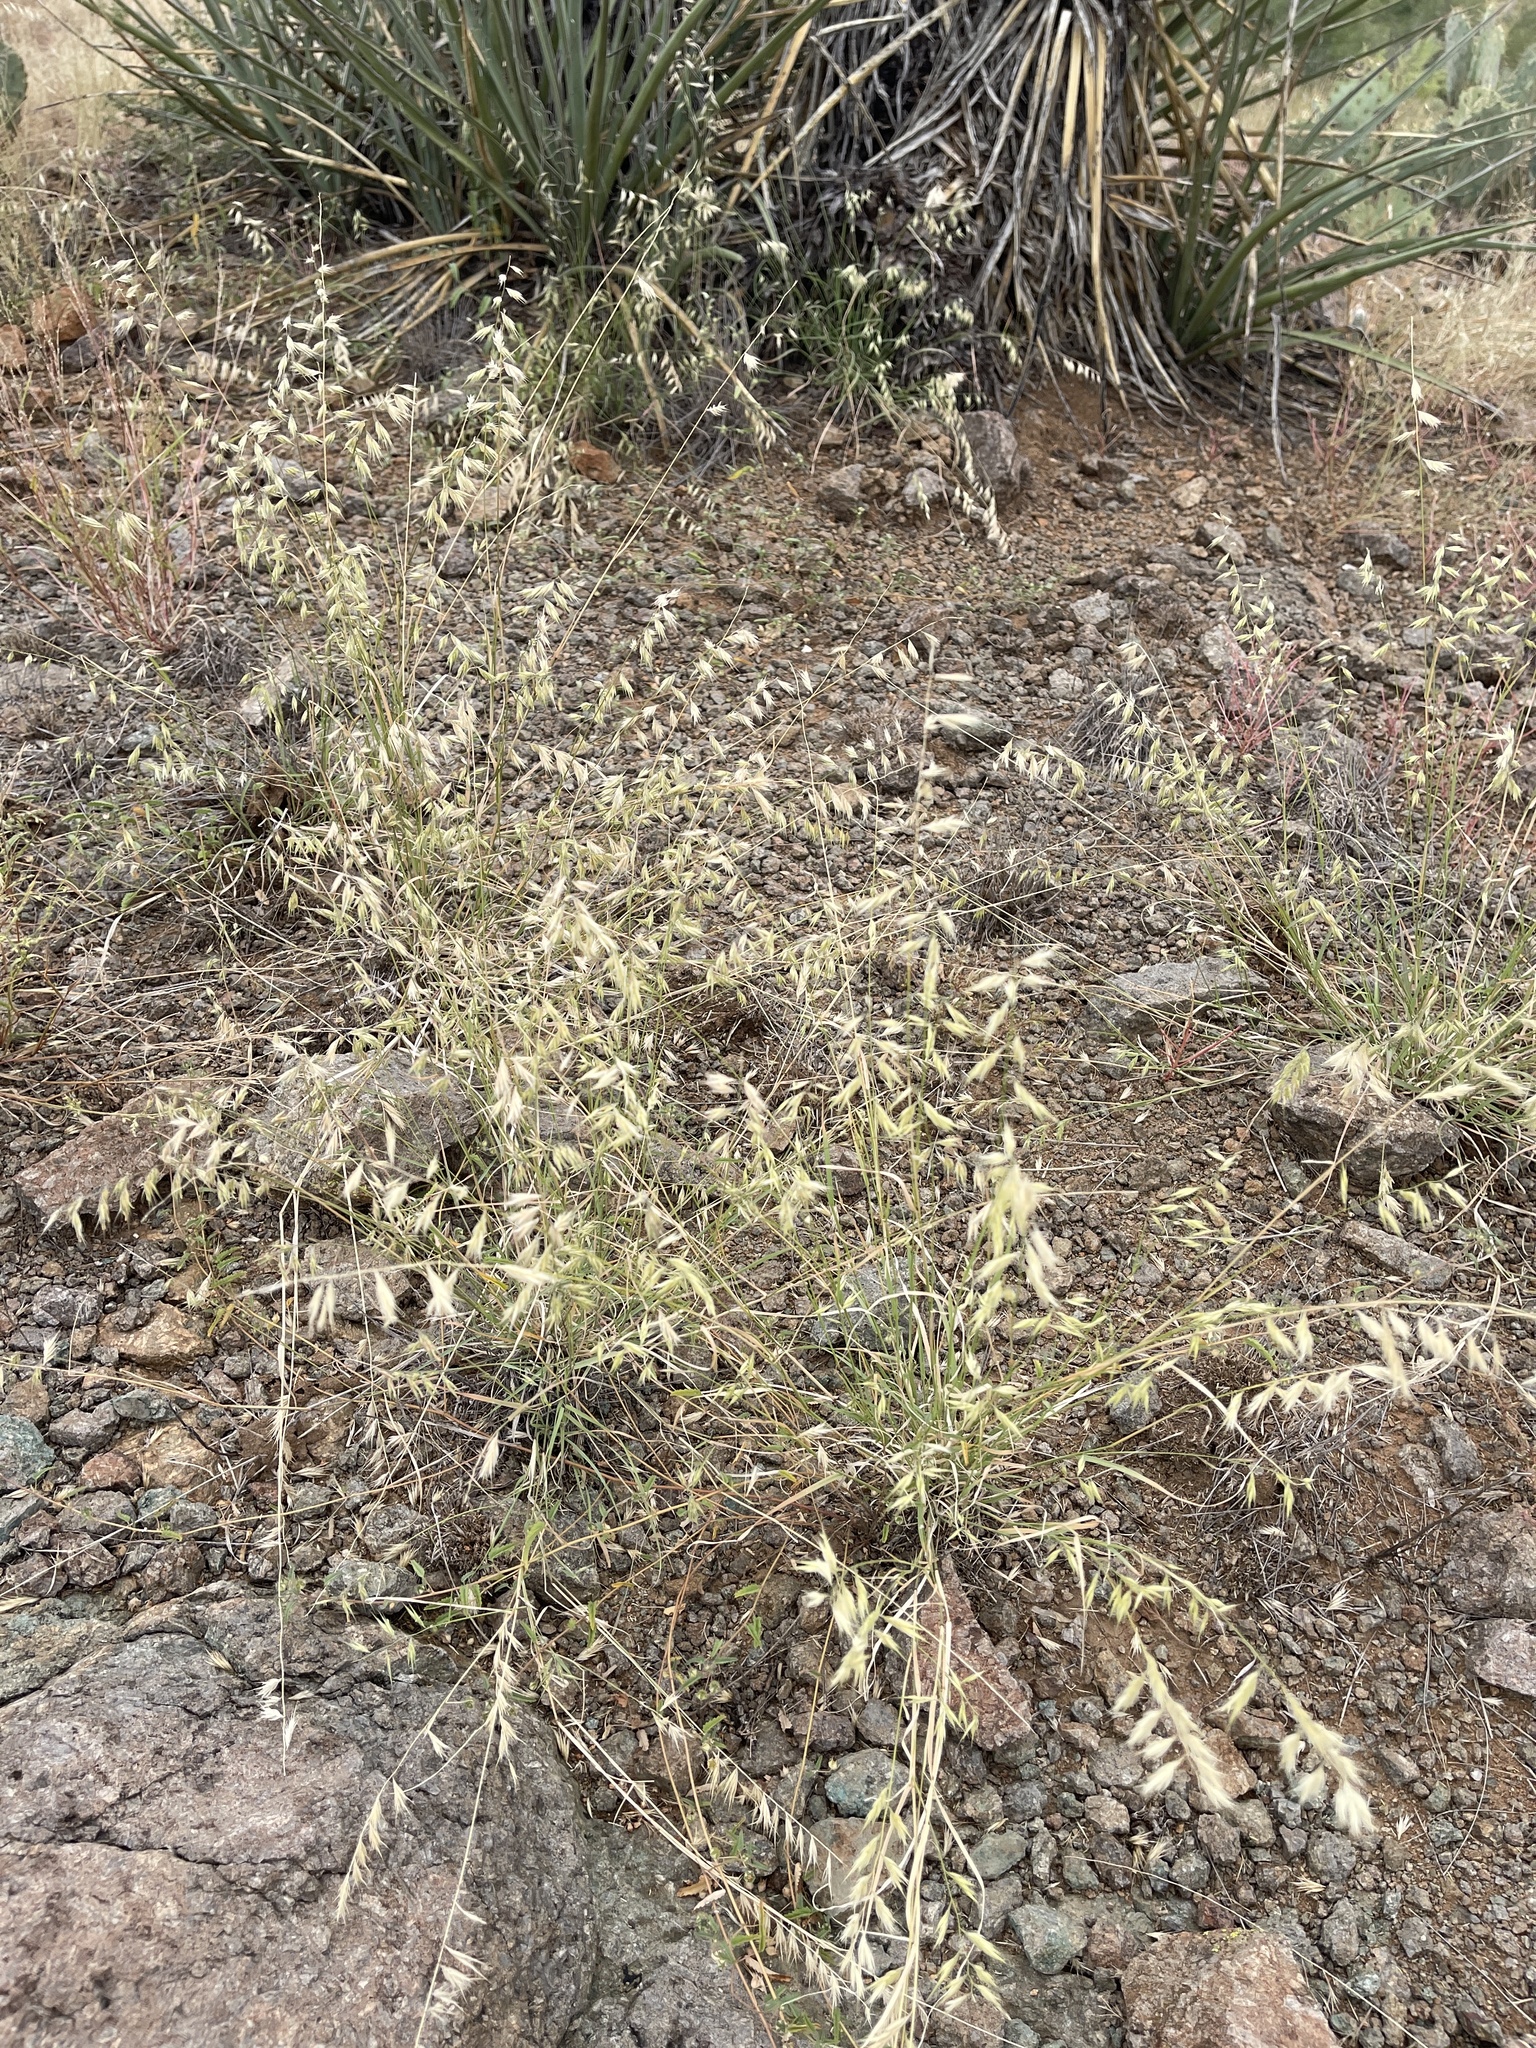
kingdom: Plantae
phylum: Tracheophyta
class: Liliopsida
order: Poales
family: Poaceae
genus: Eragrostis
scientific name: Eragrostis cilianensis
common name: Stinkgrass
